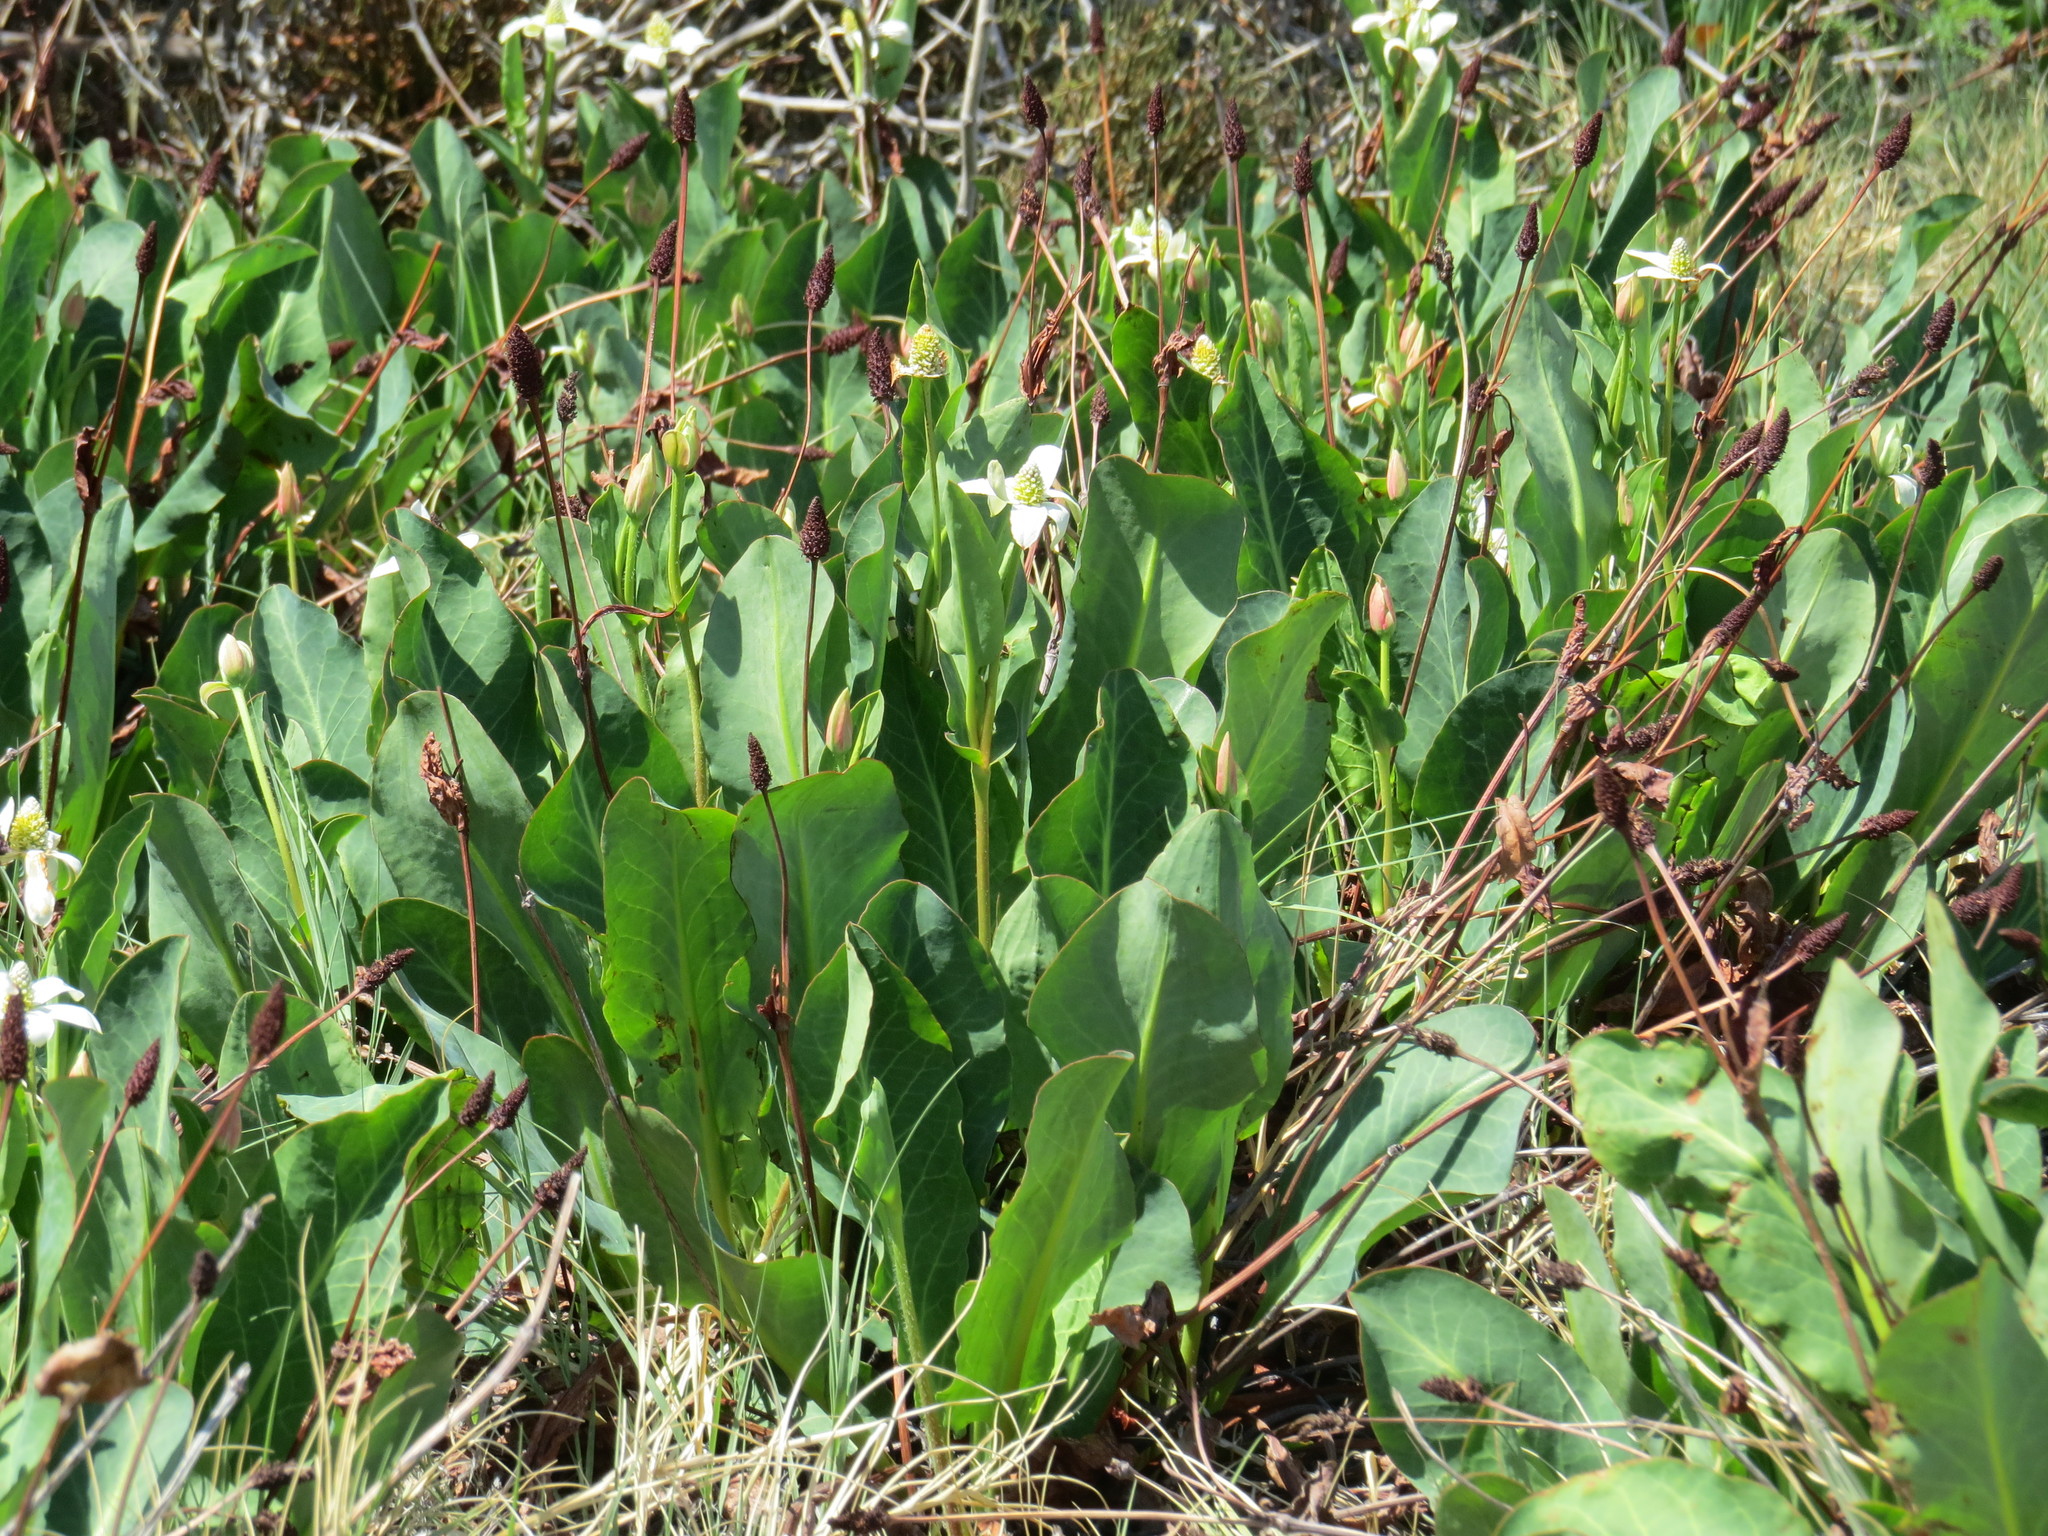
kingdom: Plantae
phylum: Tracheophyta
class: Magnoliopsida
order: Piperales
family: Saururaceae
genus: Anemopsis
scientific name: Anemopsis californica
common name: Apache-beads
